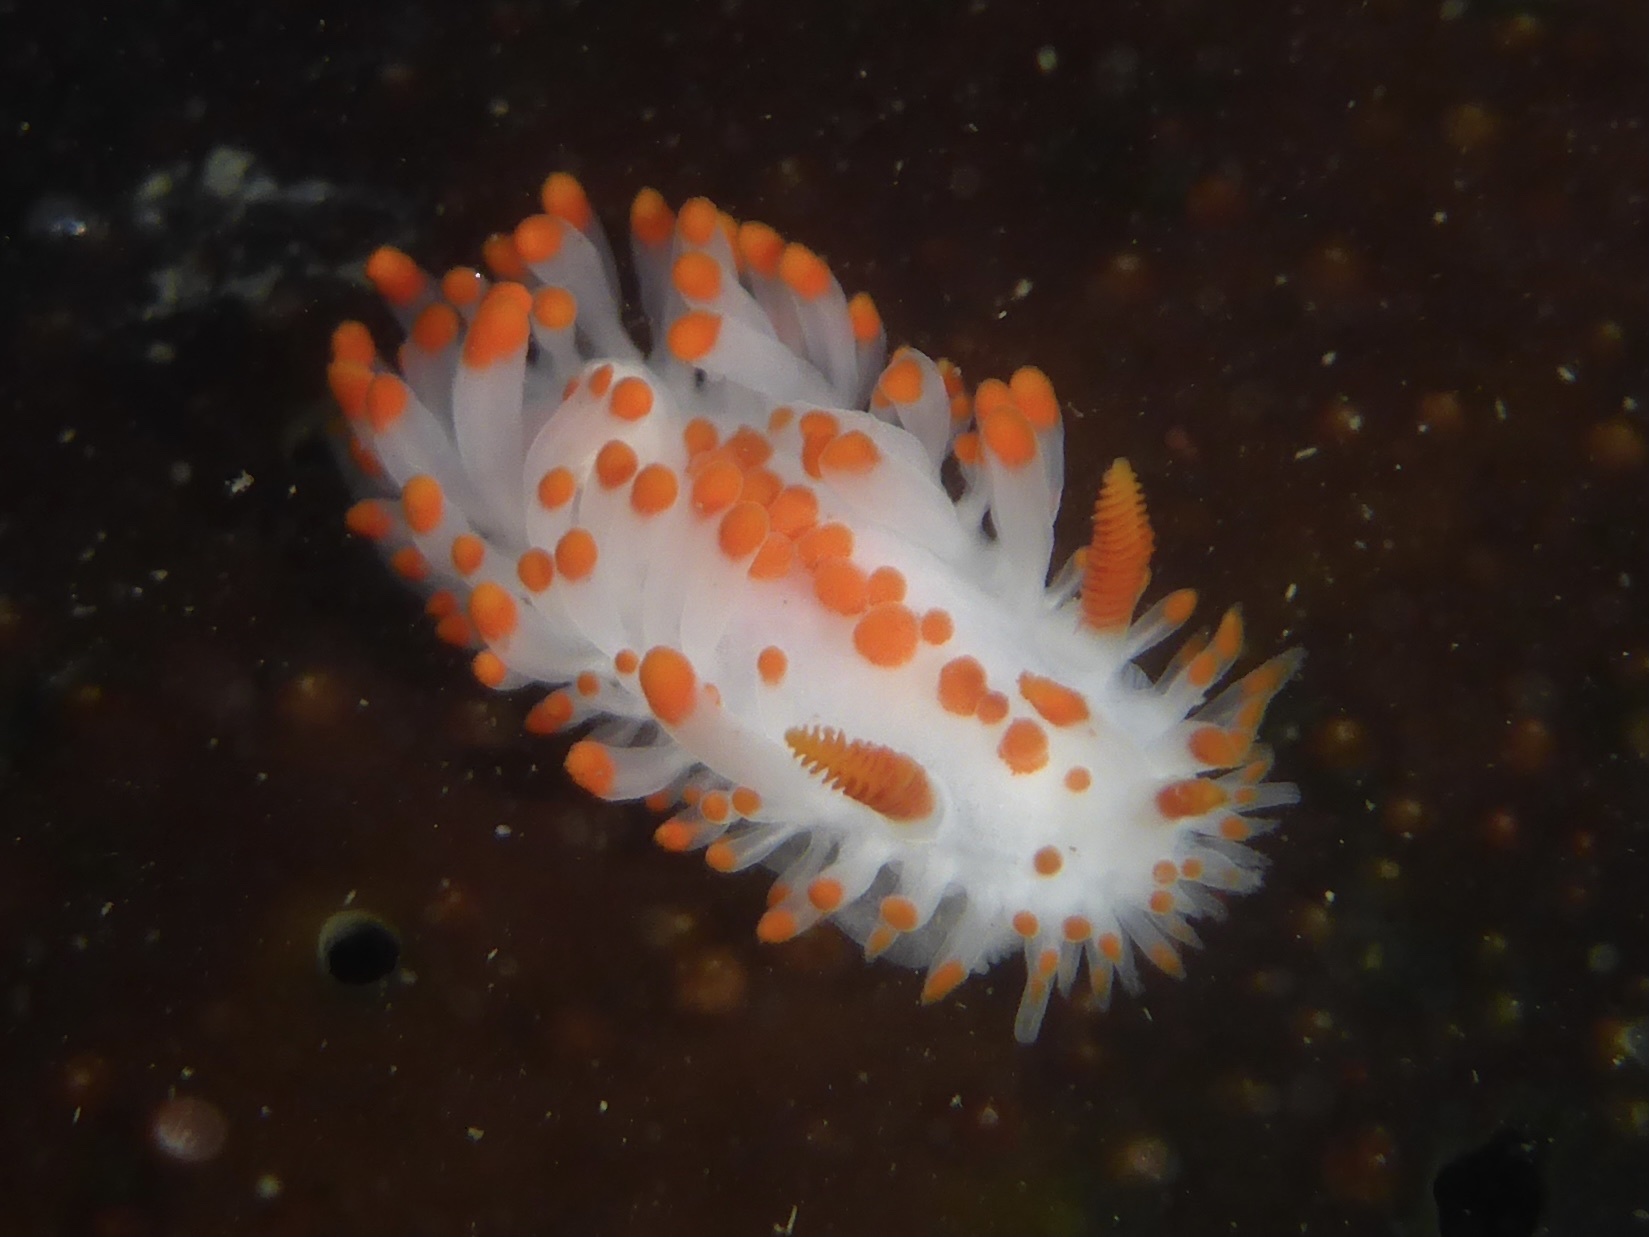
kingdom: Animalia
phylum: Mollusca
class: Gastropoda
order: Nudibranchia
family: Polyceridae
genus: Limacia
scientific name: Limacia mcdonaldi
